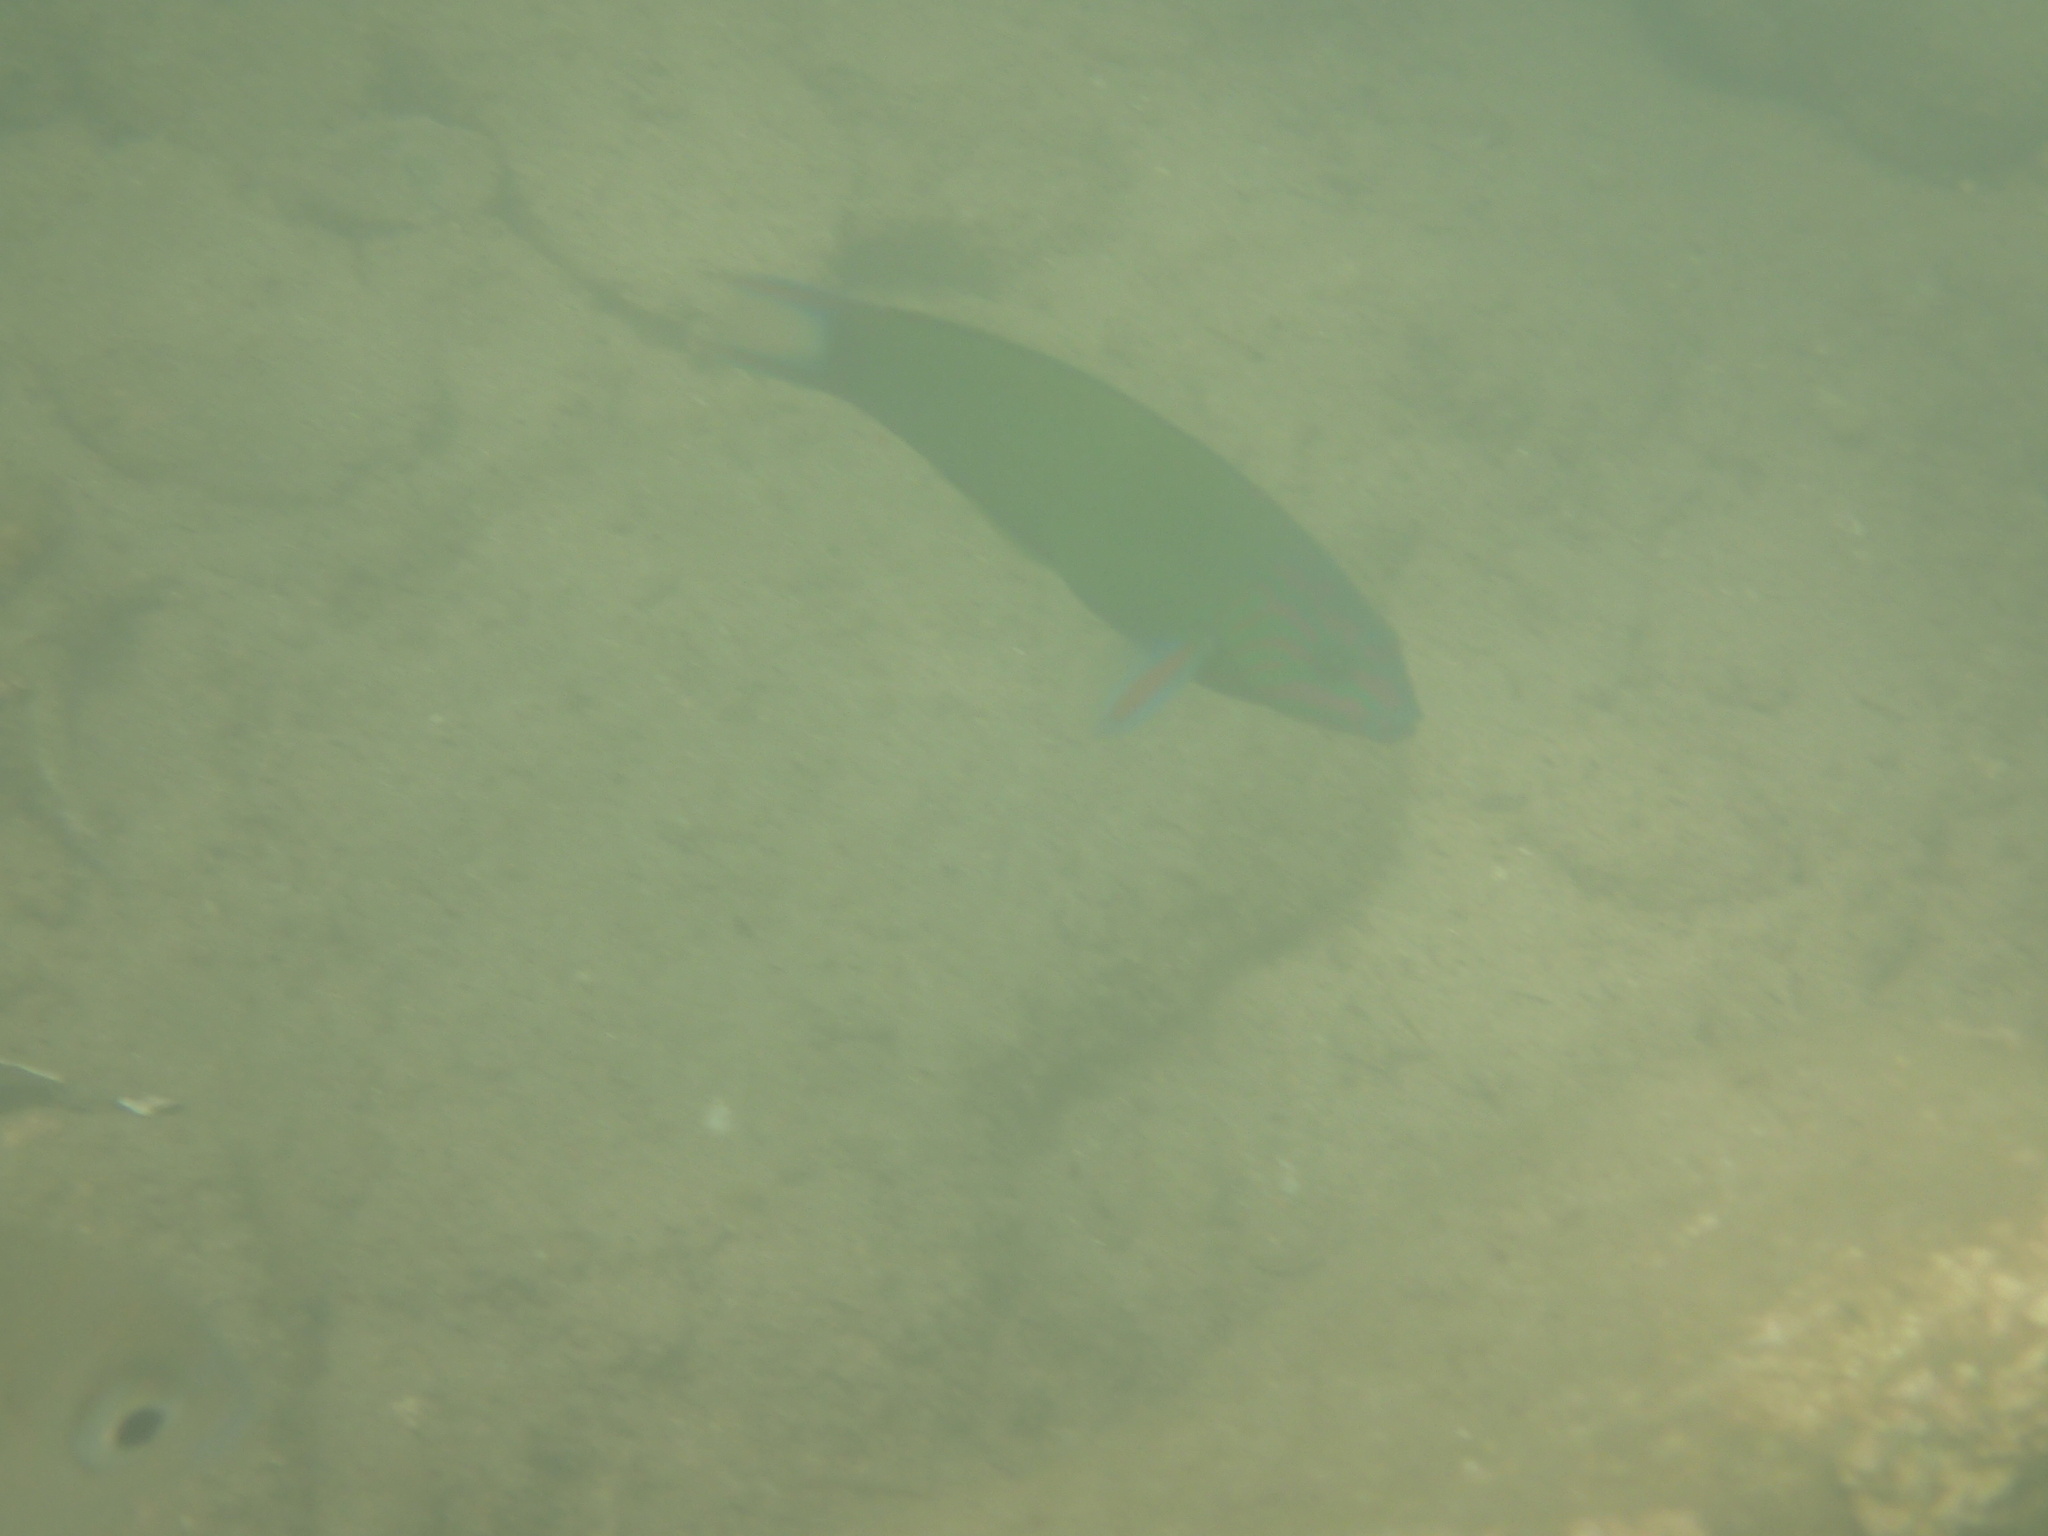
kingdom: Animalia
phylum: Chordata
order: Perciformes
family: Labridae
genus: Thalassoma
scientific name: Thalassoma lunare
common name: Blue wrasse
